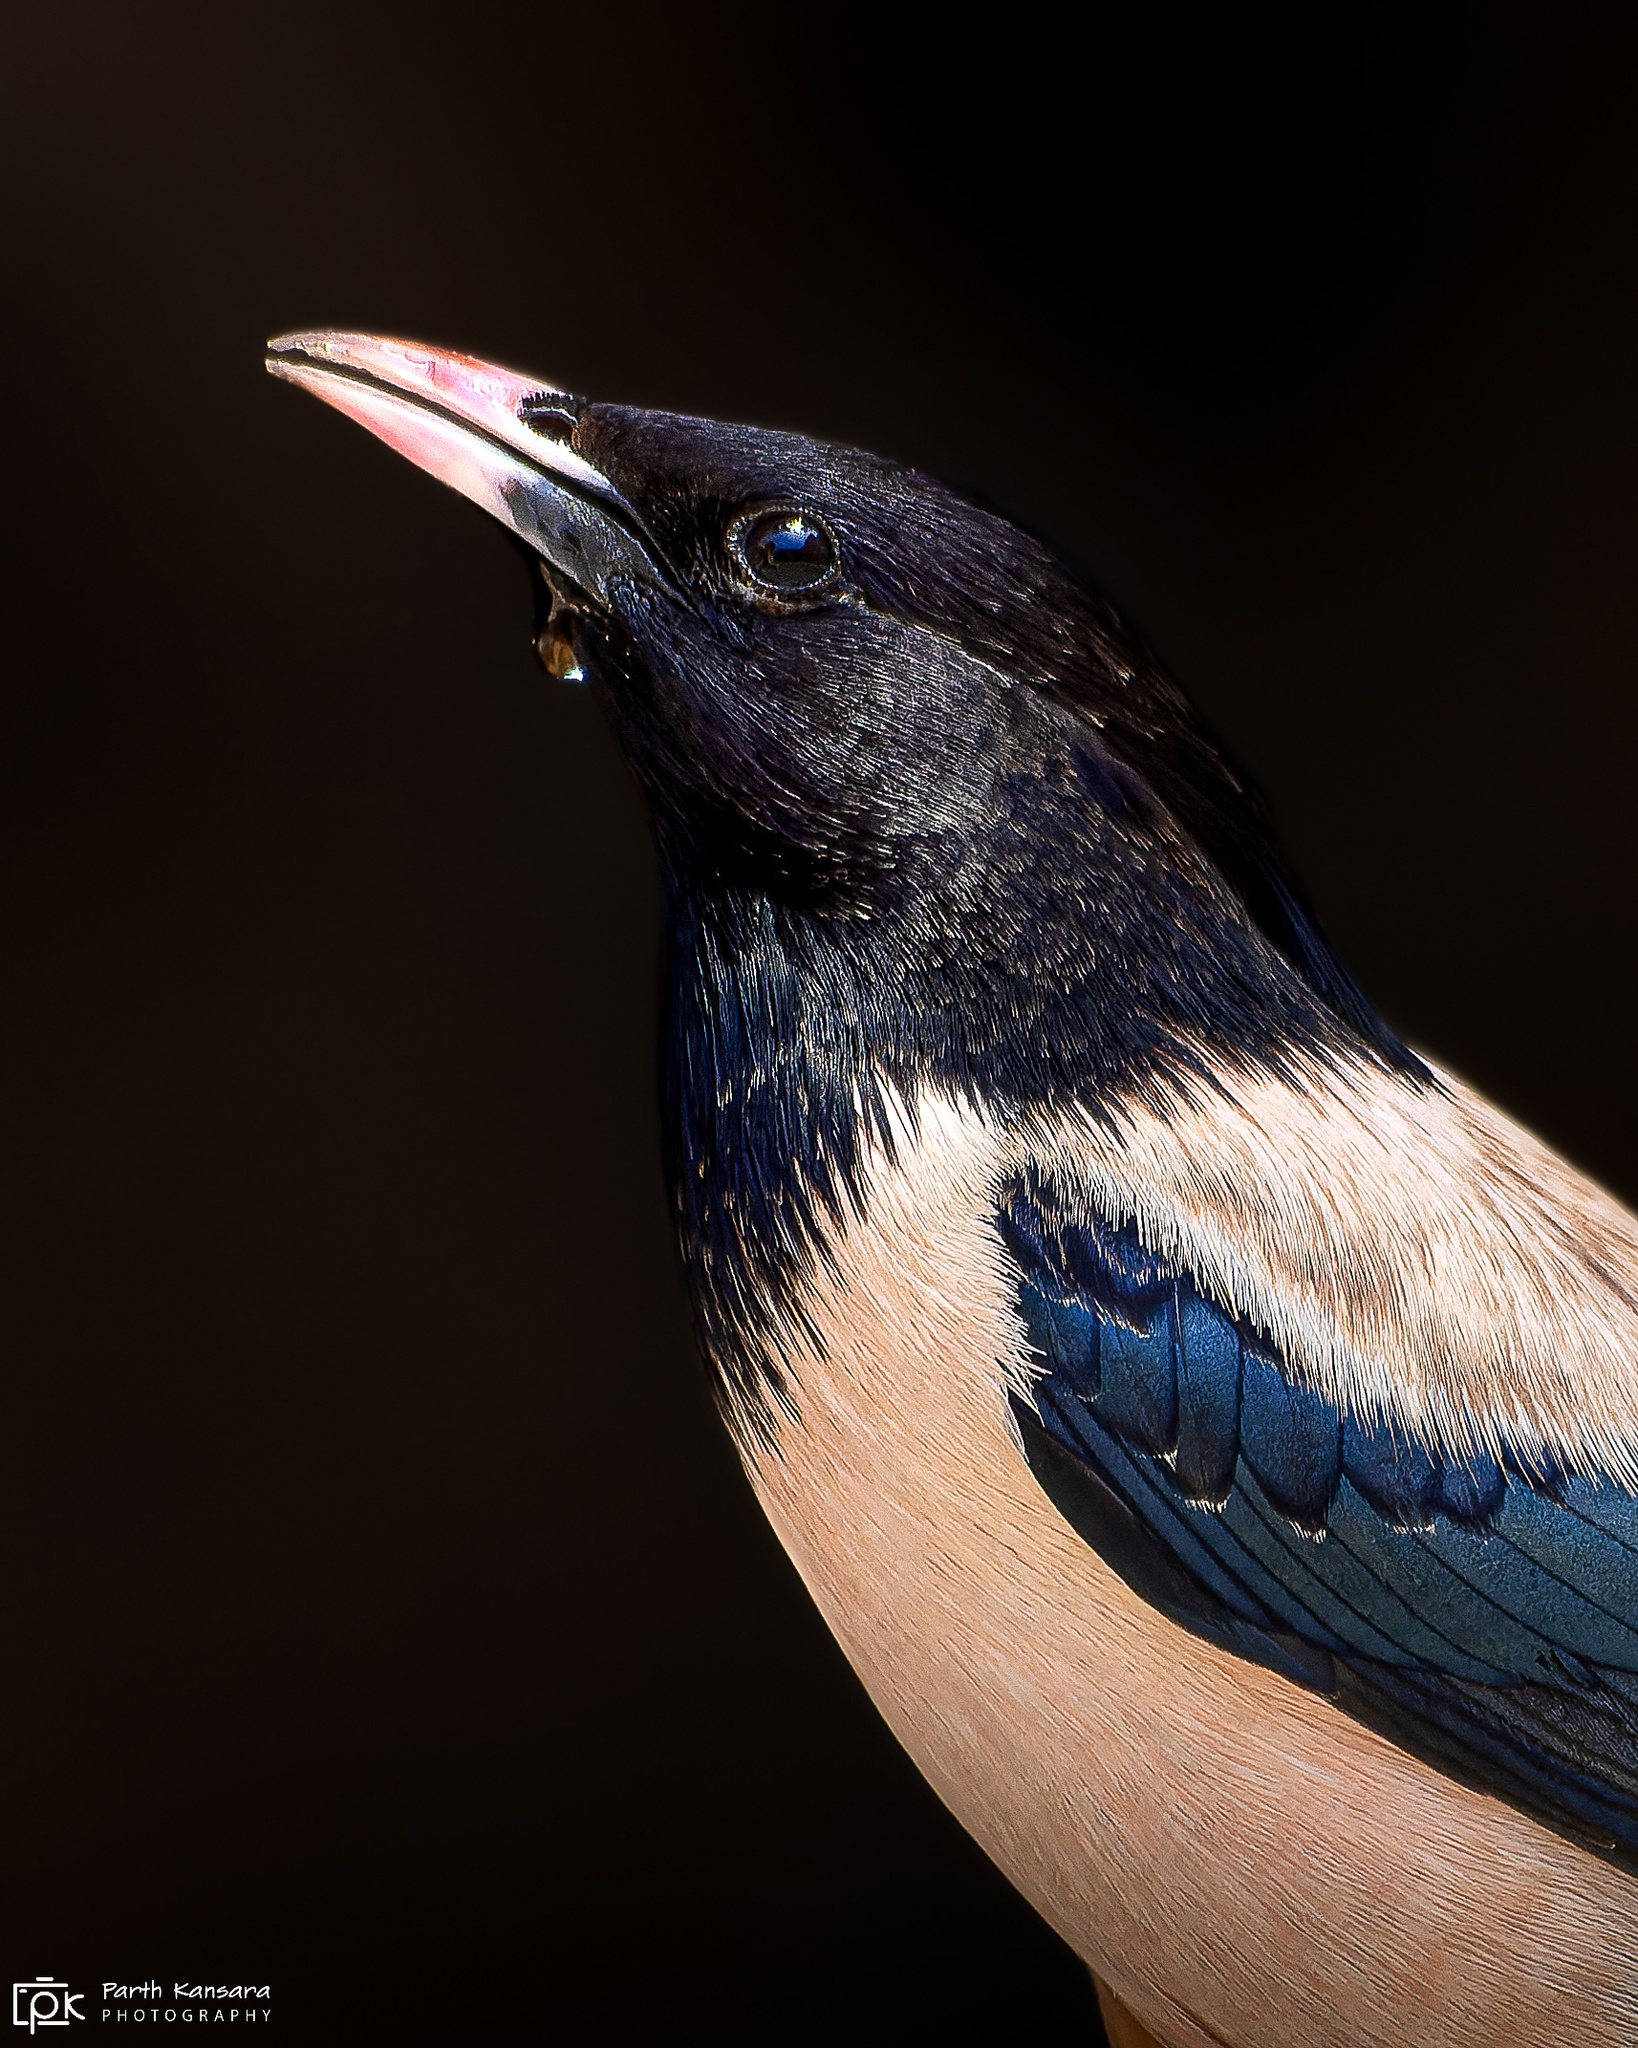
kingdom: Animalia
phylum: Chordata
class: Aves
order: Passeriformes
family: Sturnidae
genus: Pastor
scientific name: Pastor roseus
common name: Rosy starling
